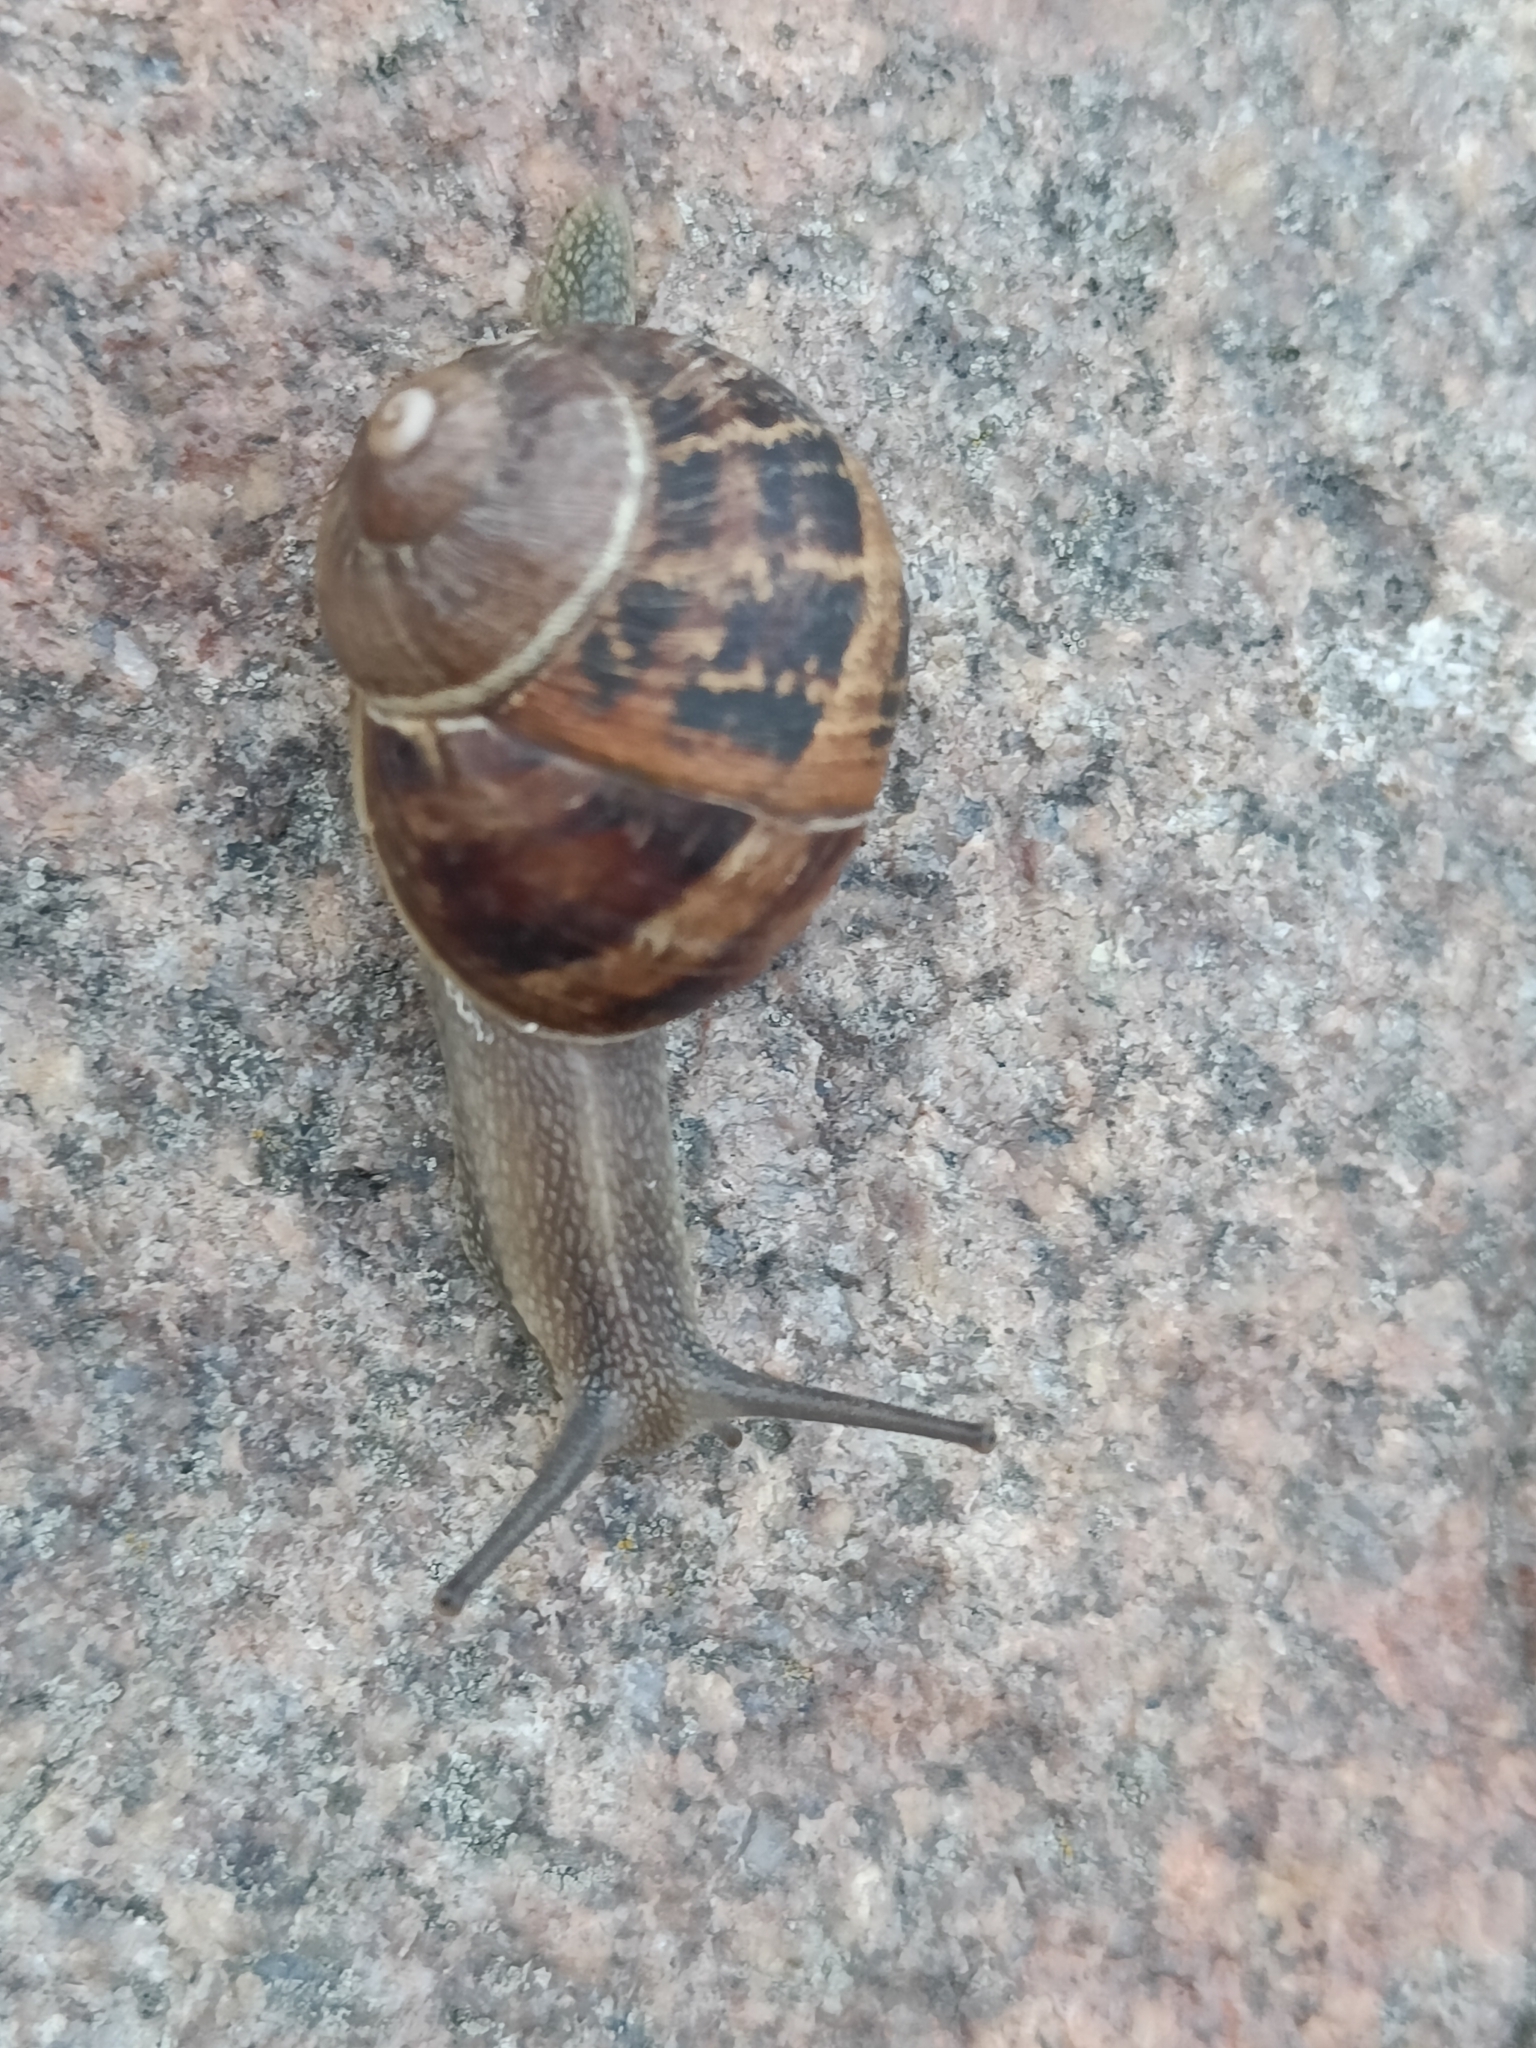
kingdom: Animalia
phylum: Mollusca
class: Gastropoda
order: Stylommatophora
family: Helicidae
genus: Cornu
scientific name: Cornu aspersum
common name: Brown garden snail
